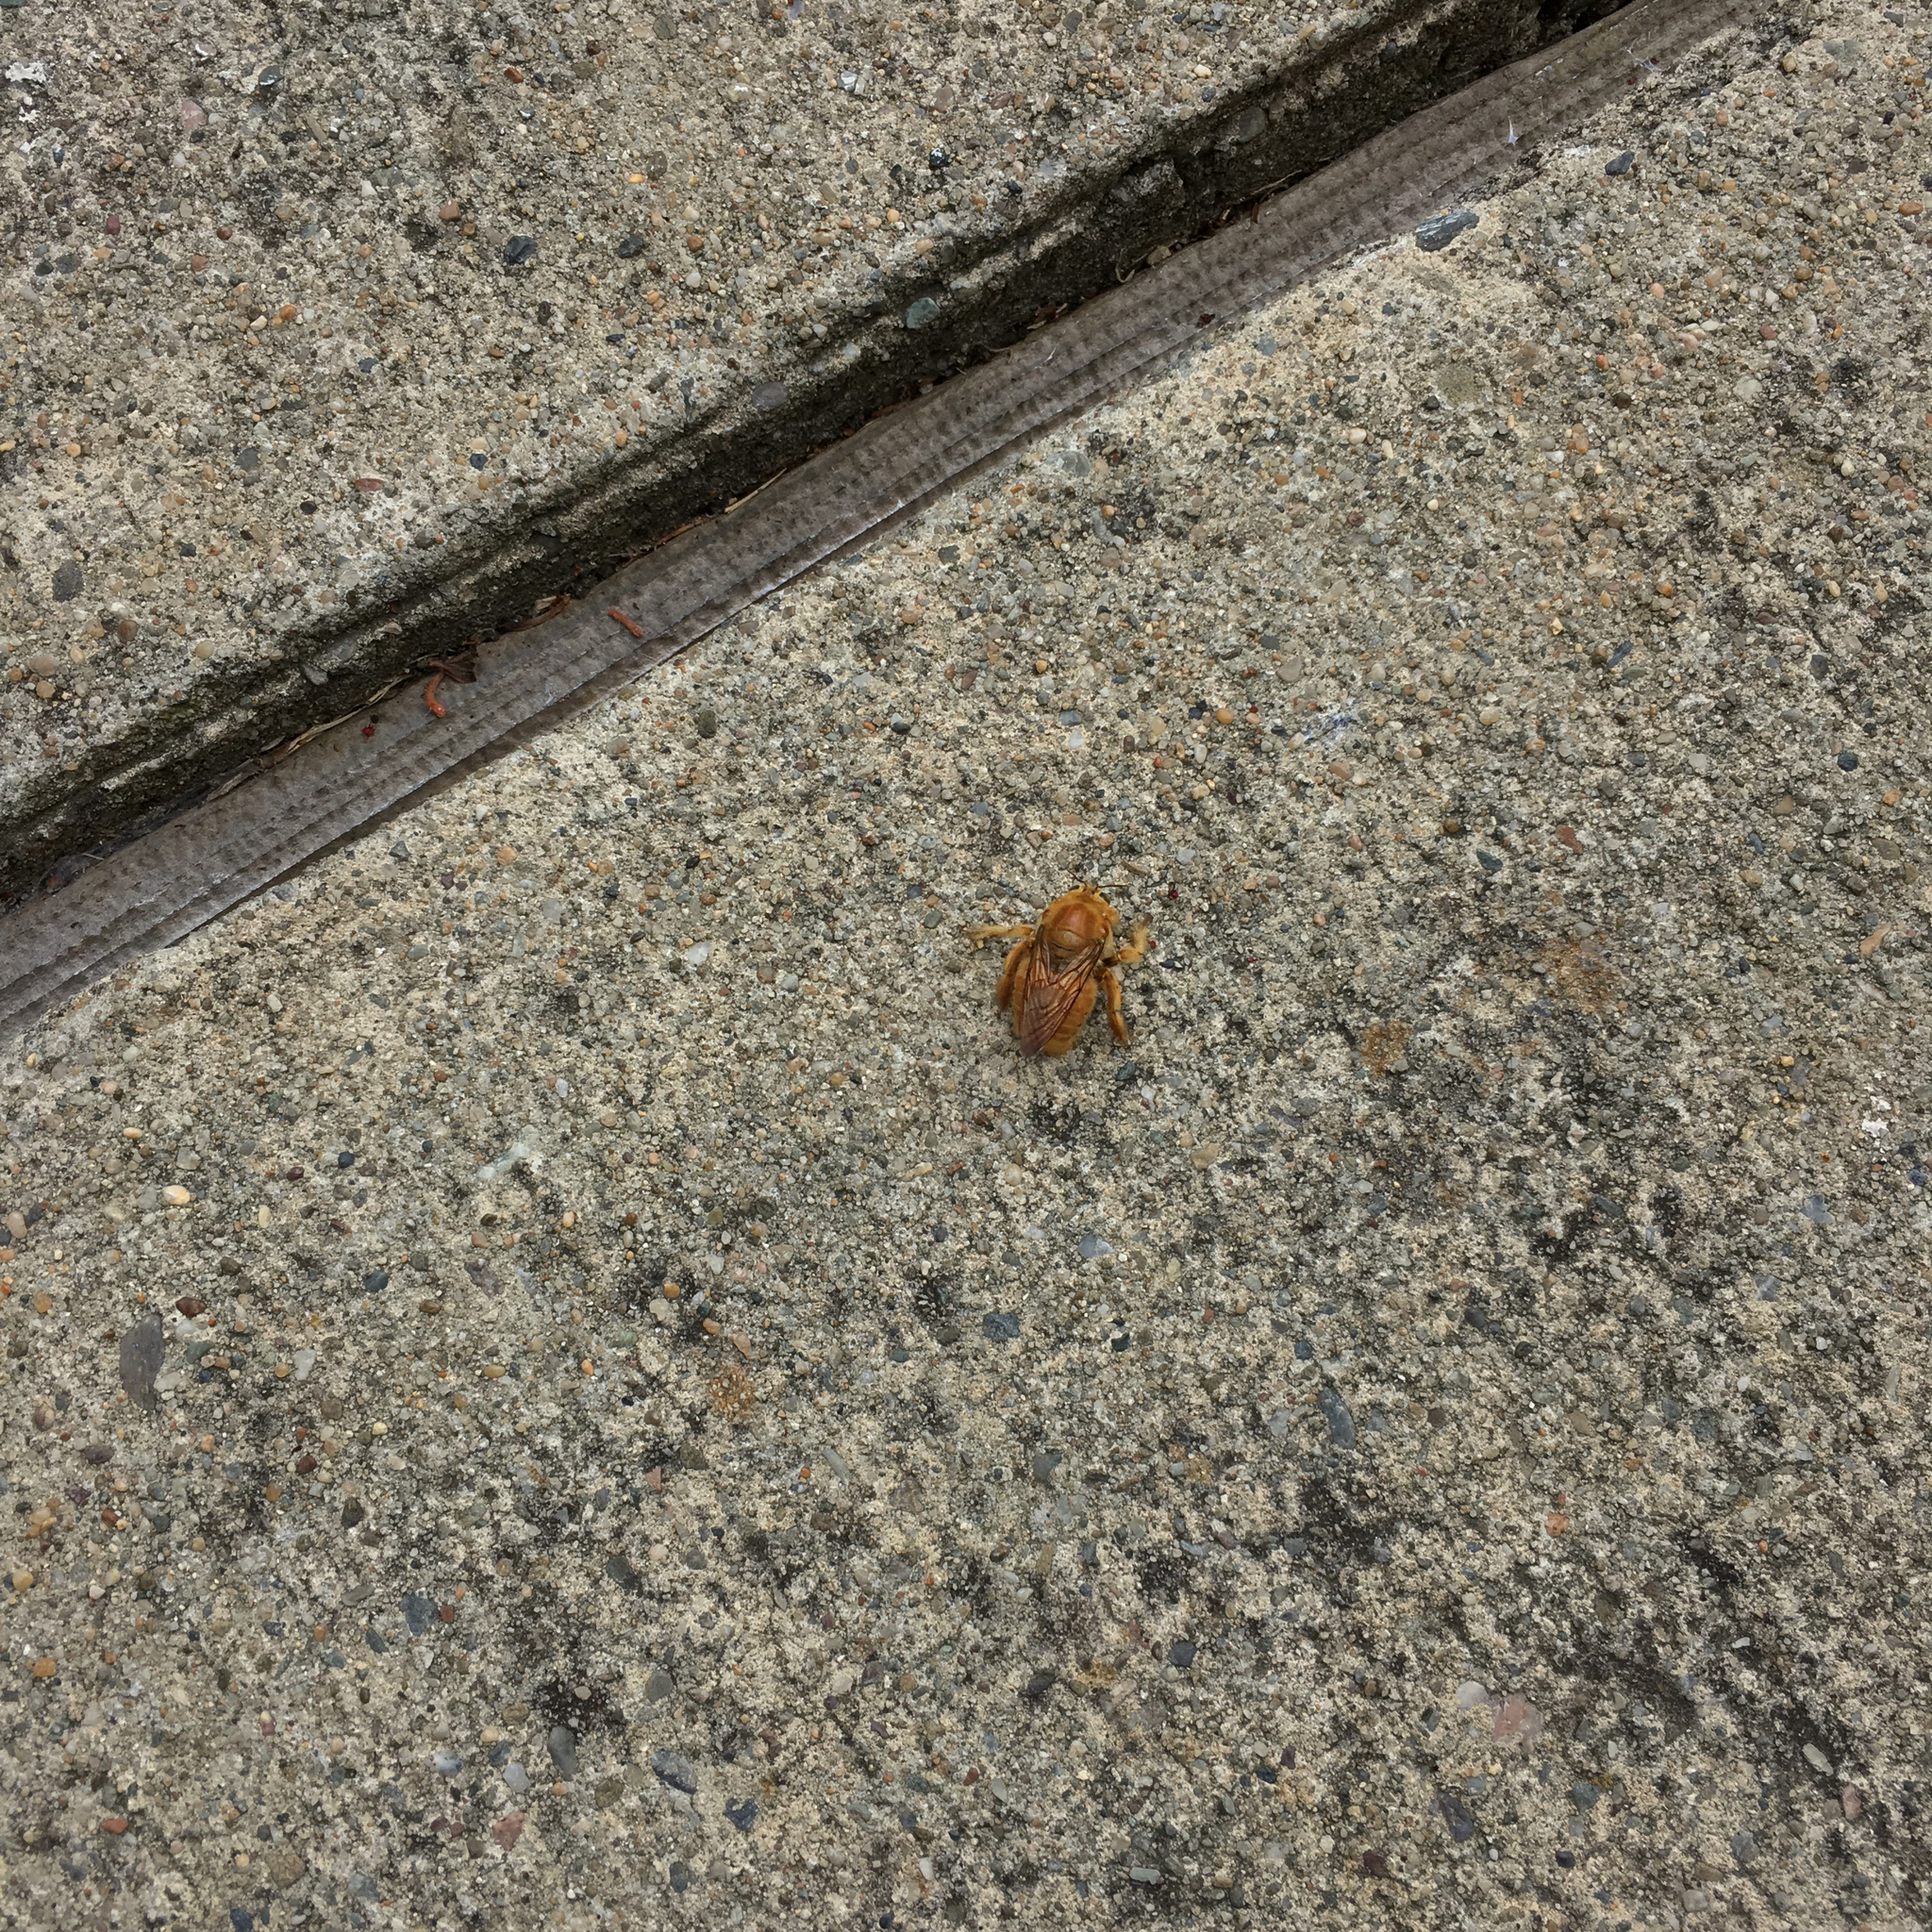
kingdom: Animalia
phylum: Arthropoda
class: Insecta
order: Hymenoptera
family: Apidae
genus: Xylocopa
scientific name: Xylocopa sonorina
